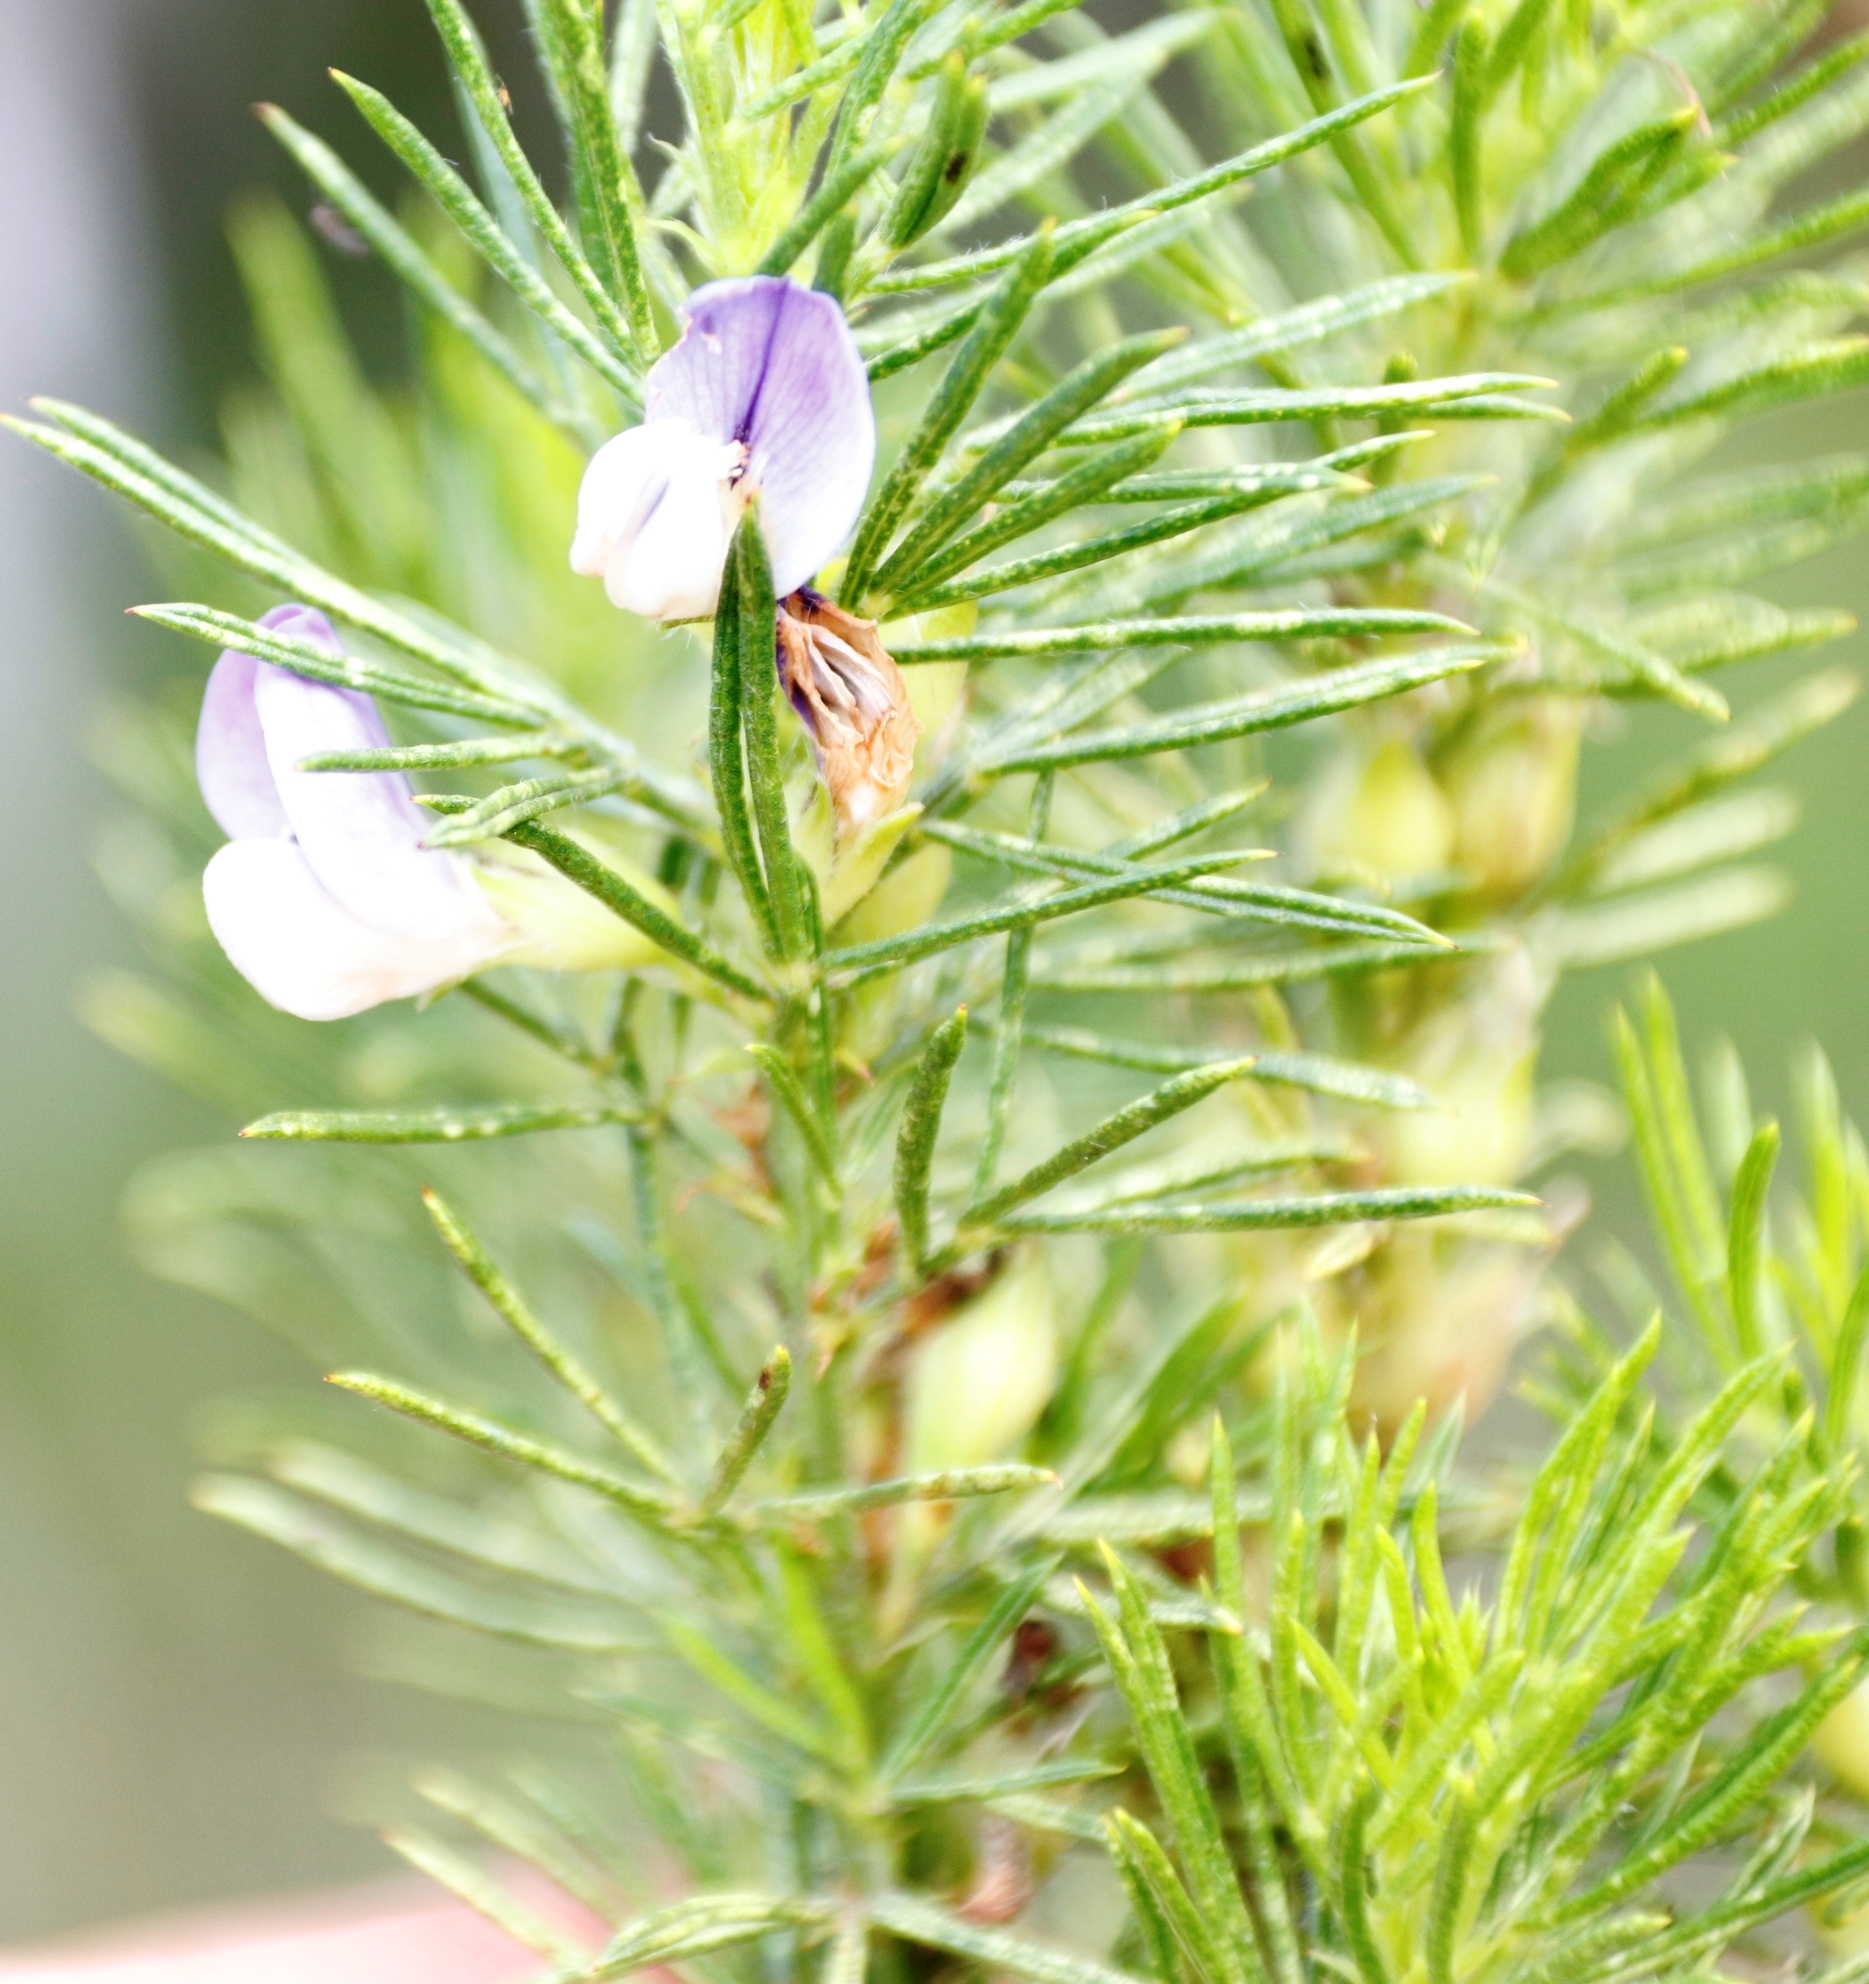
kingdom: Plantae
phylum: Tracheophyta
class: Magnoliopsida
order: Fabales
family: Fabaceae
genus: Psoralea
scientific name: Psoralea pinnata
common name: African scurfpea
